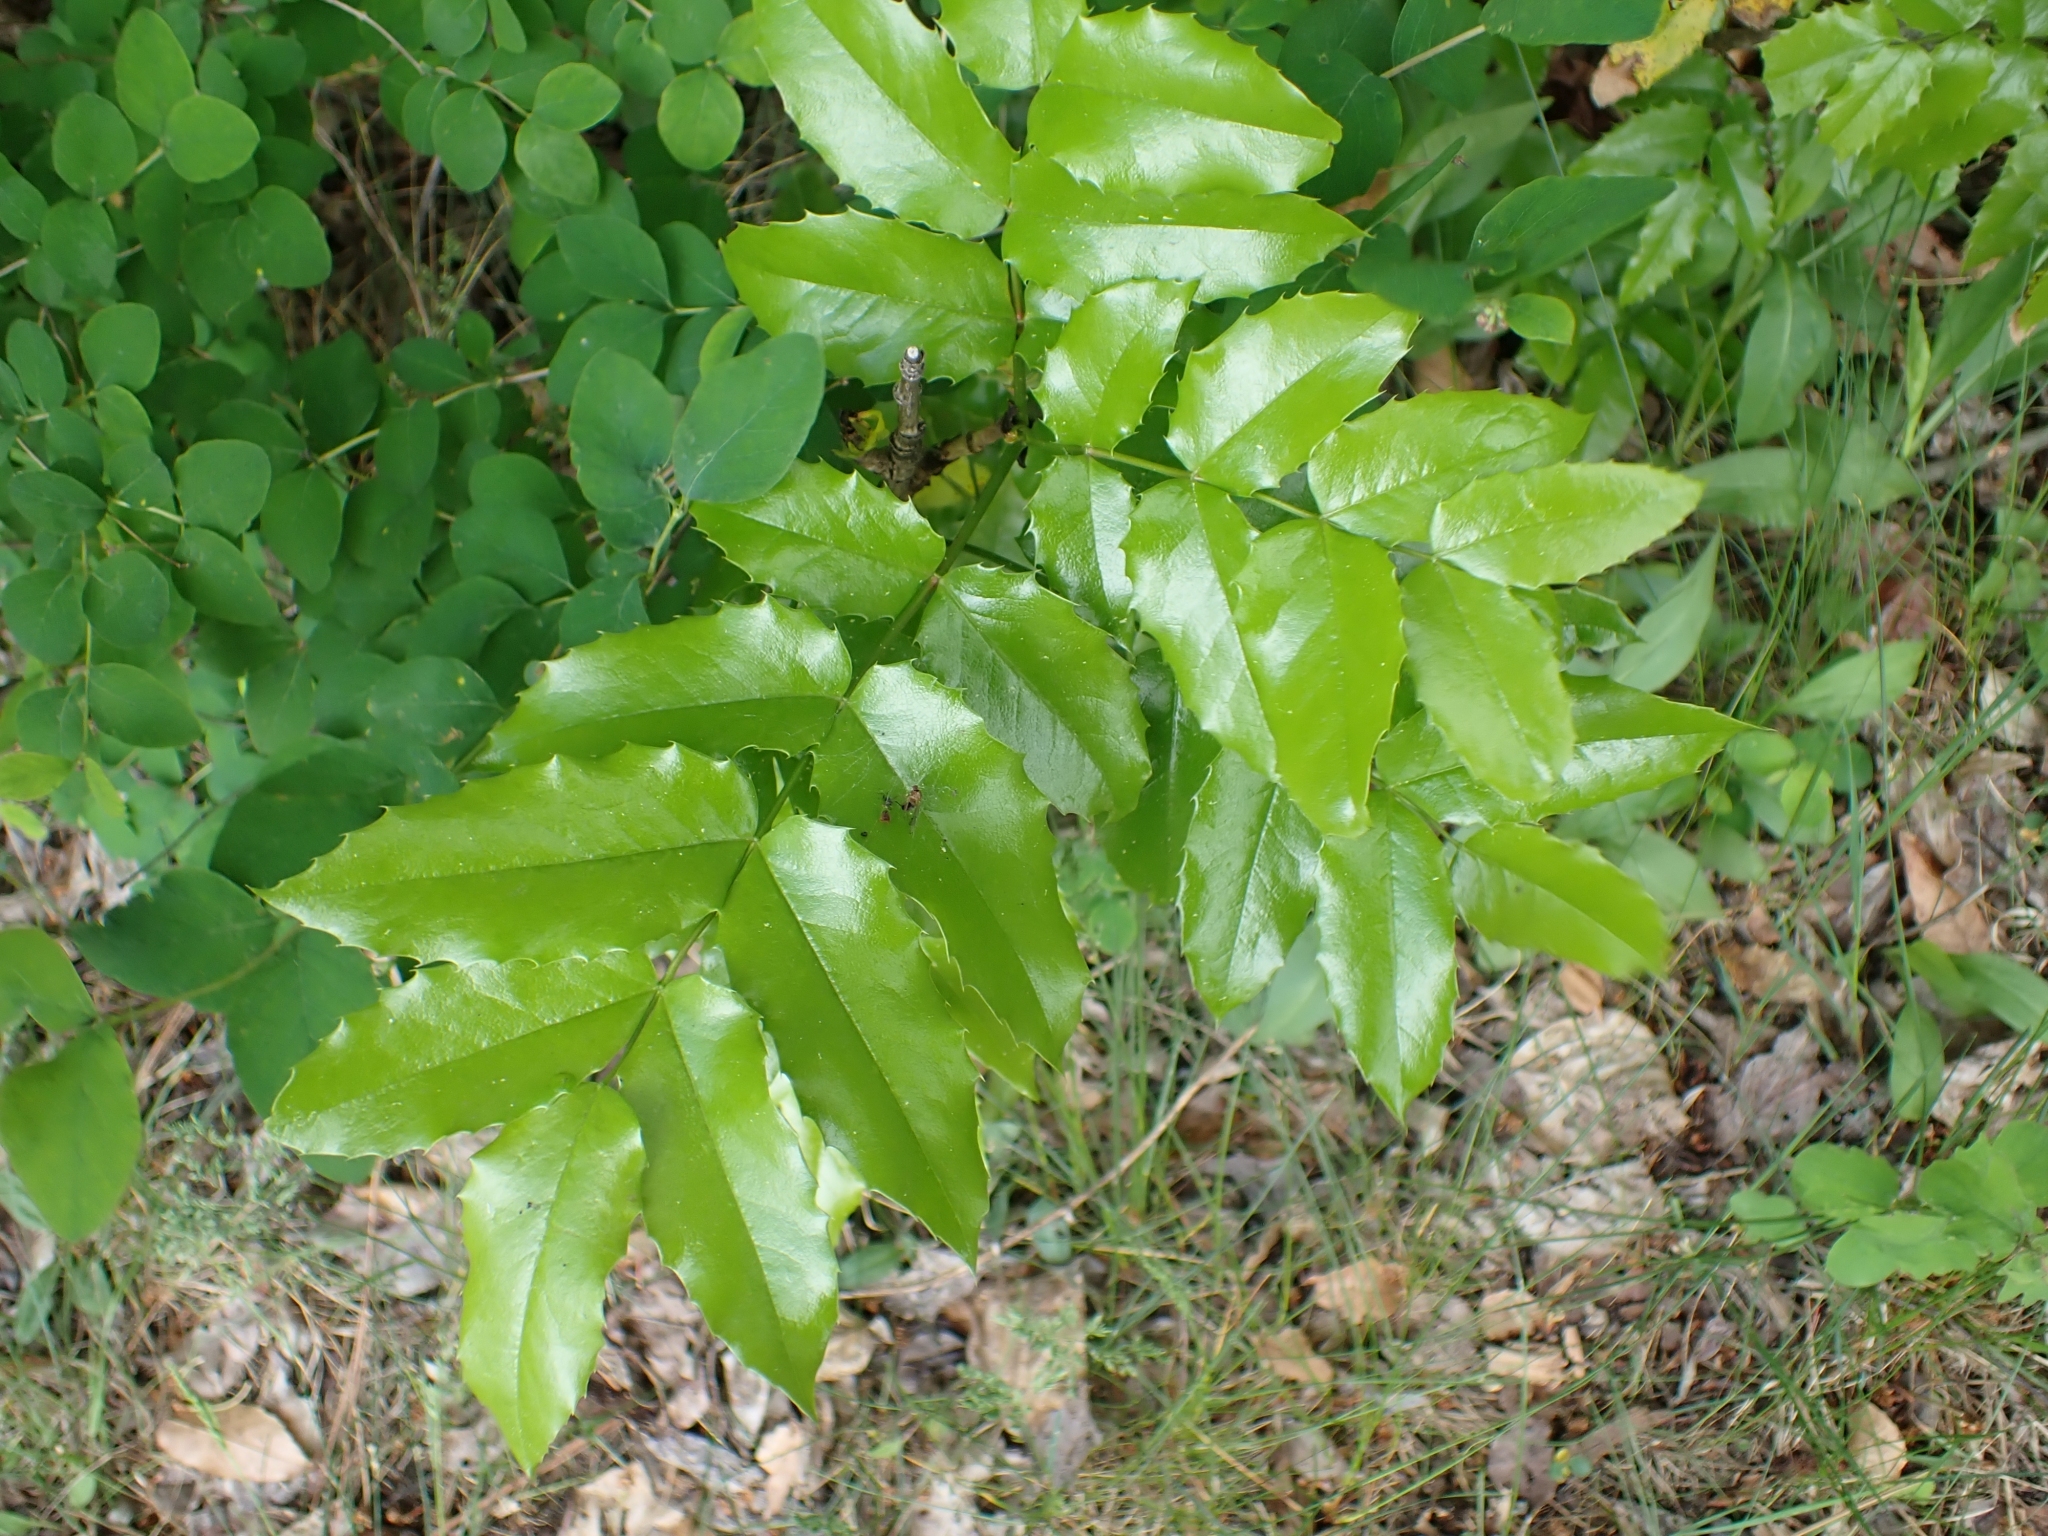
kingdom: Plantae
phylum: Tracheophyta
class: Magnoliopsida
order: Ranunculales
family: Berberidaceae
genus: Mahonia
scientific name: Mahonia aquifolium
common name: Oregon-grape
